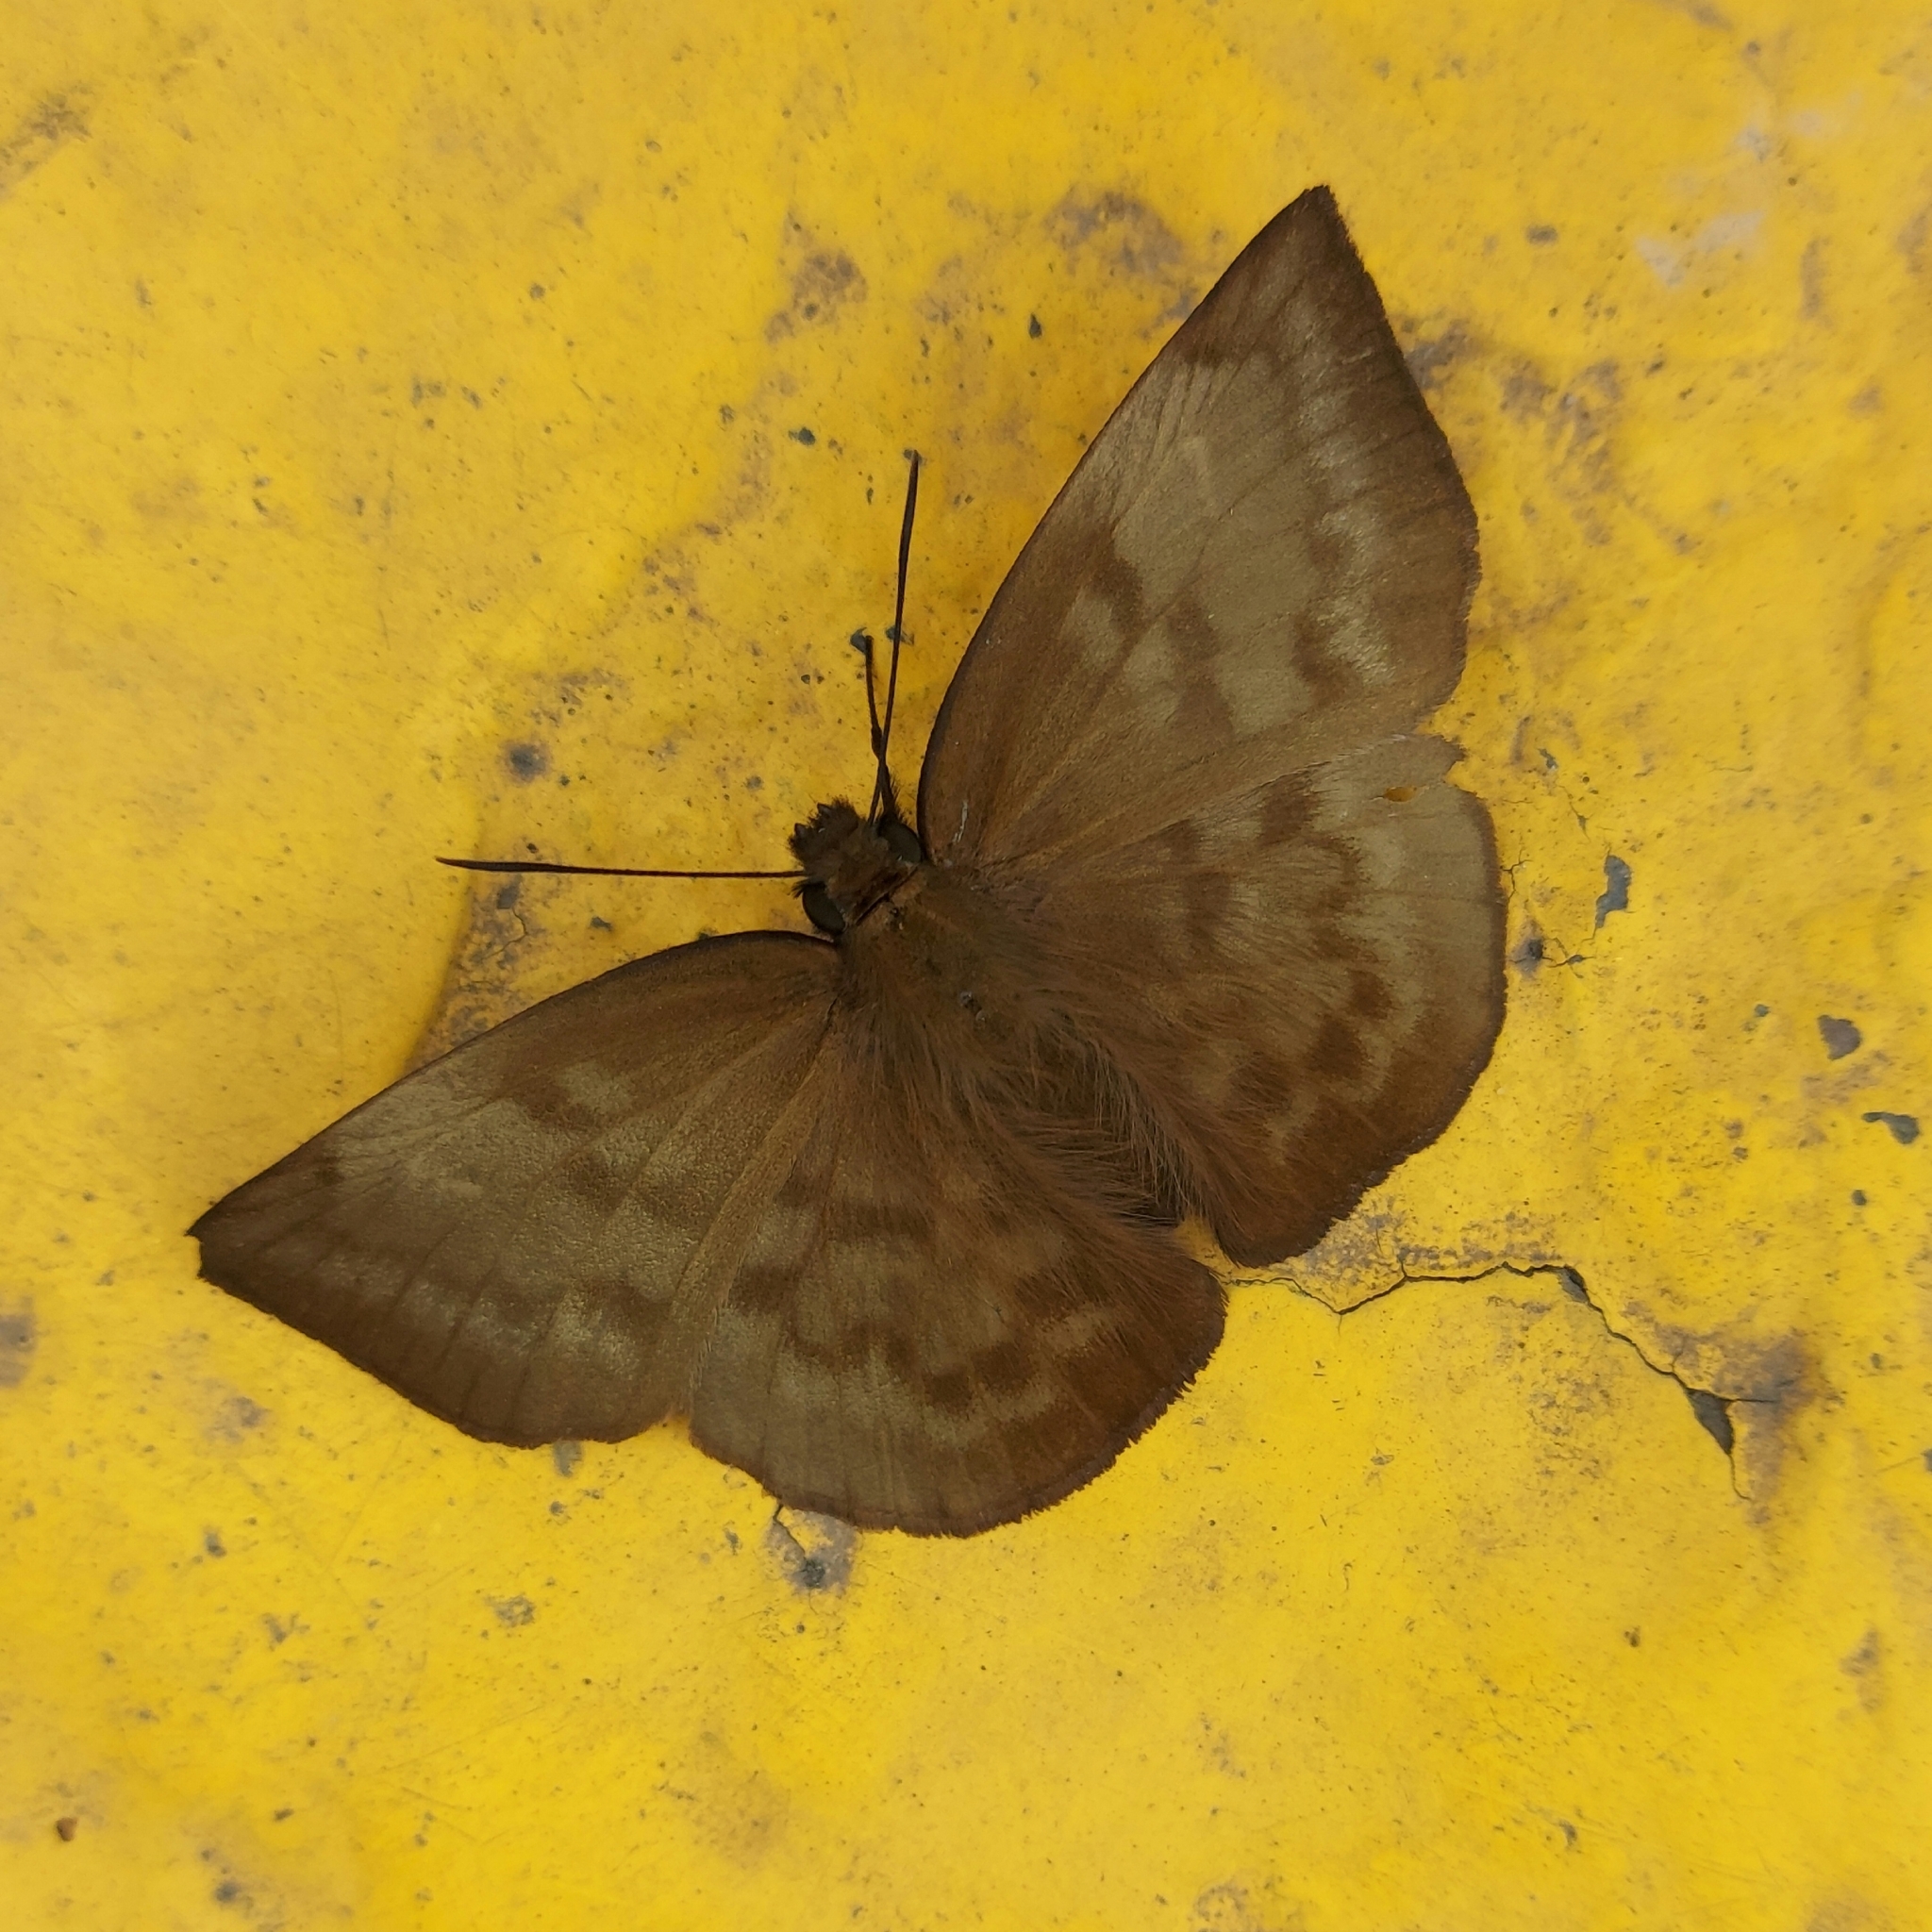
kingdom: Animalia
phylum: Arthropoda
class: Insecta
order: Lepidoptera
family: Hesperiidae
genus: Achlyodes
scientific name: Achlyodes pallida
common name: Pale sicklewing
